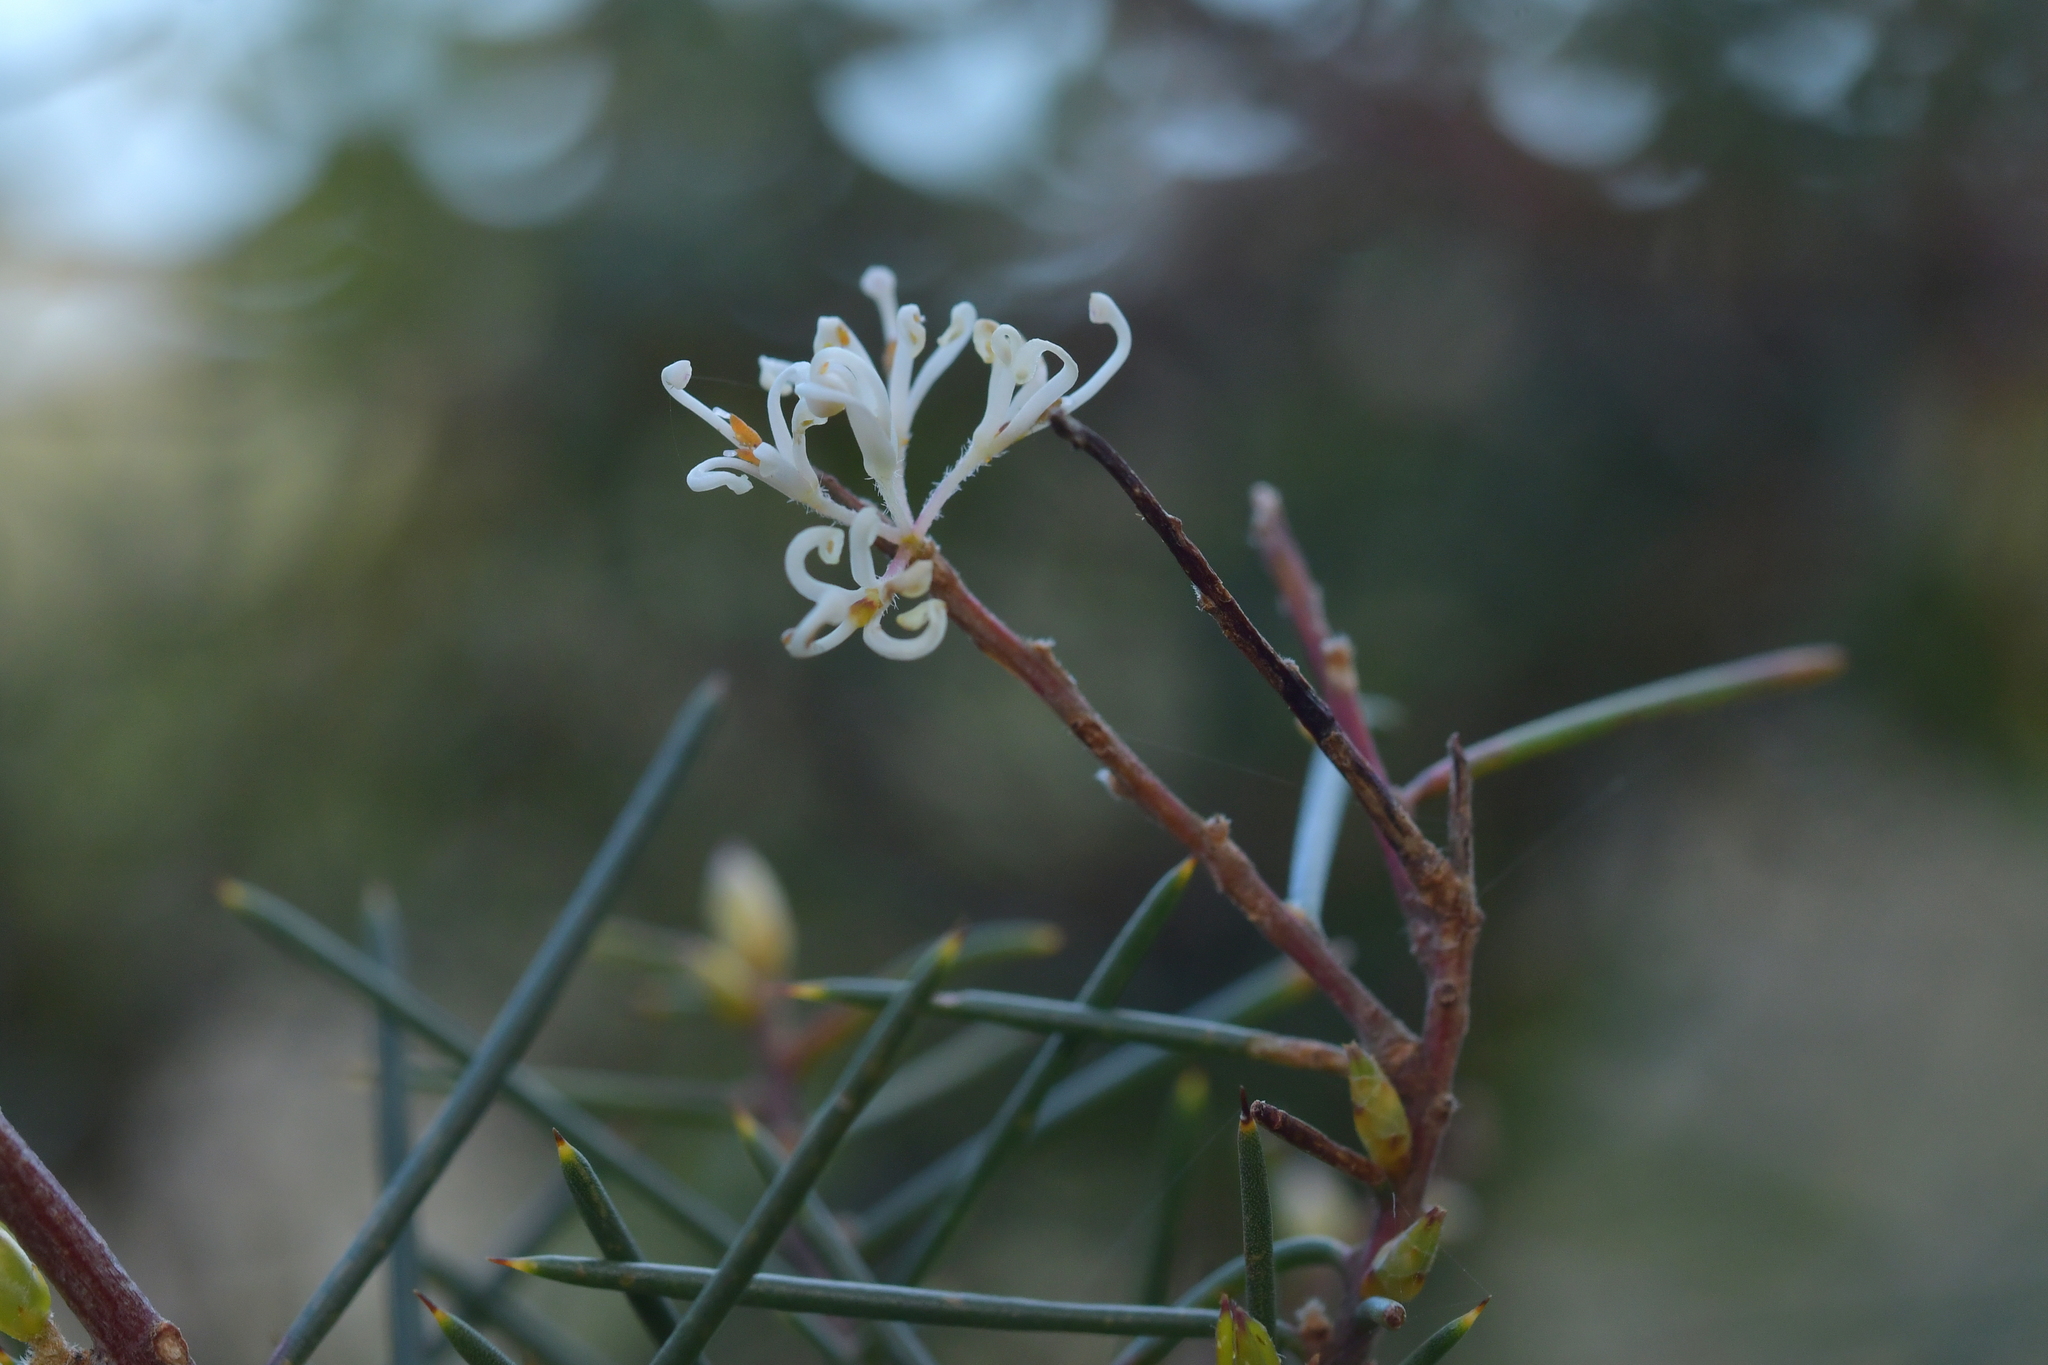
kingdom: Plantae
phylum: Tracheophyta
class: Magnoliopsida
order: Proteales
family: Proteaceae
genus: Hakea
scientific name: Hakea sericea
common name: Needle bush
